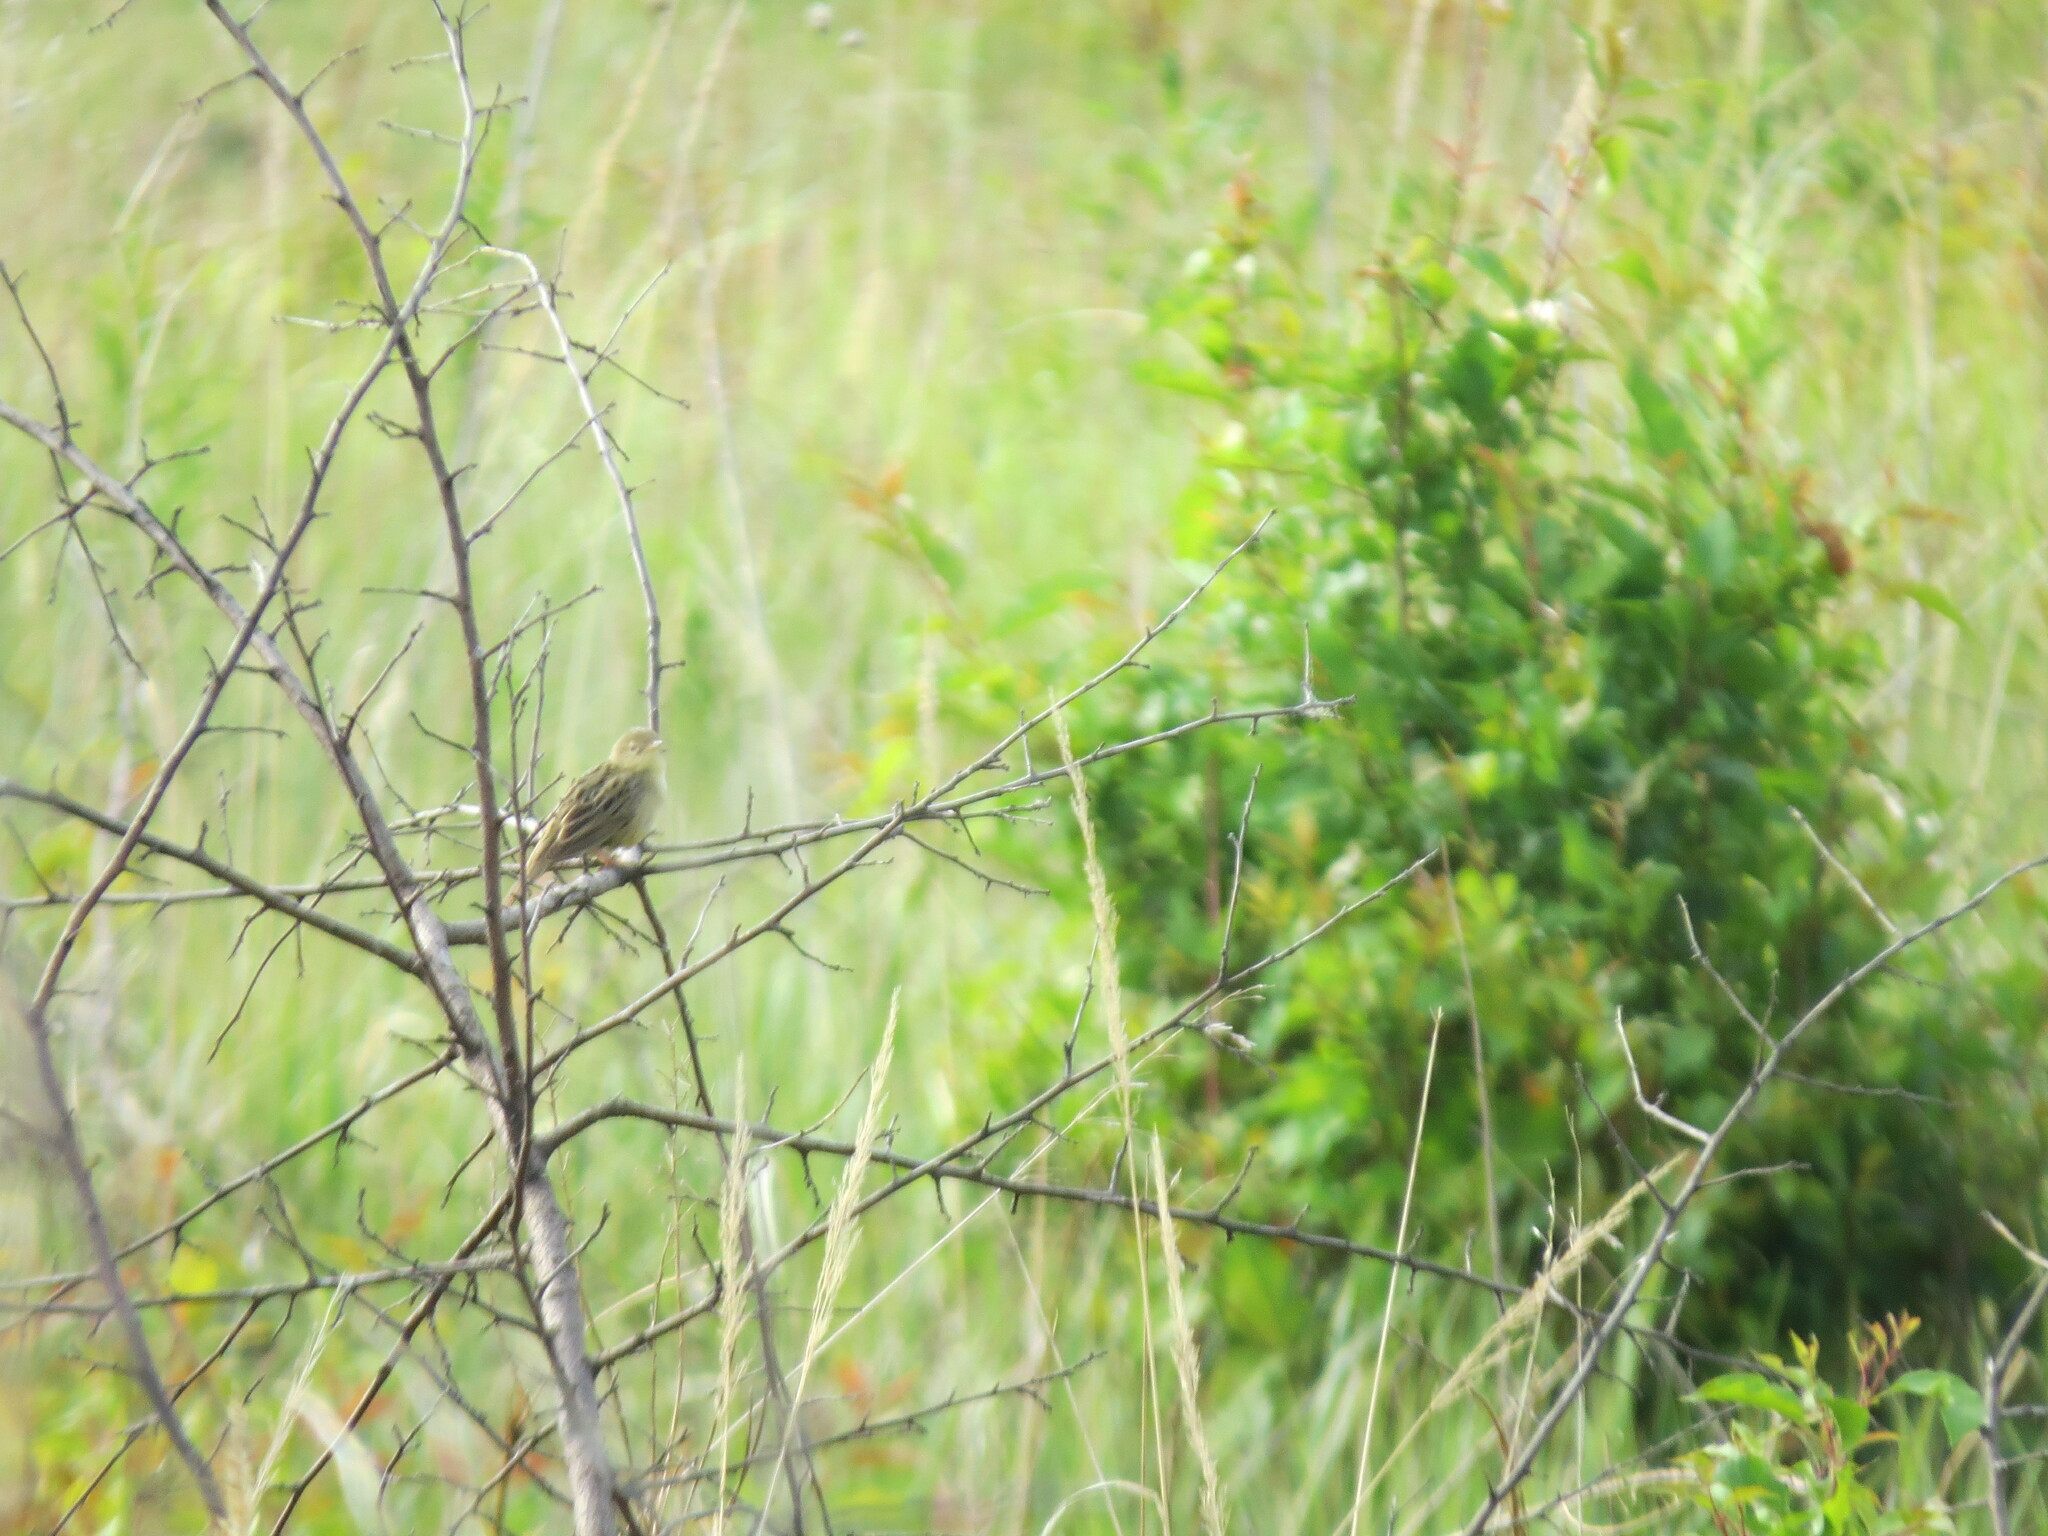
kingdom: Animalia
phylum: Chordata
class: Aves
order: Passeriformes
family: Locustellidae
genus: Locustella
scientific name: Locustella naevia
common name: Common grasshopper warbler
